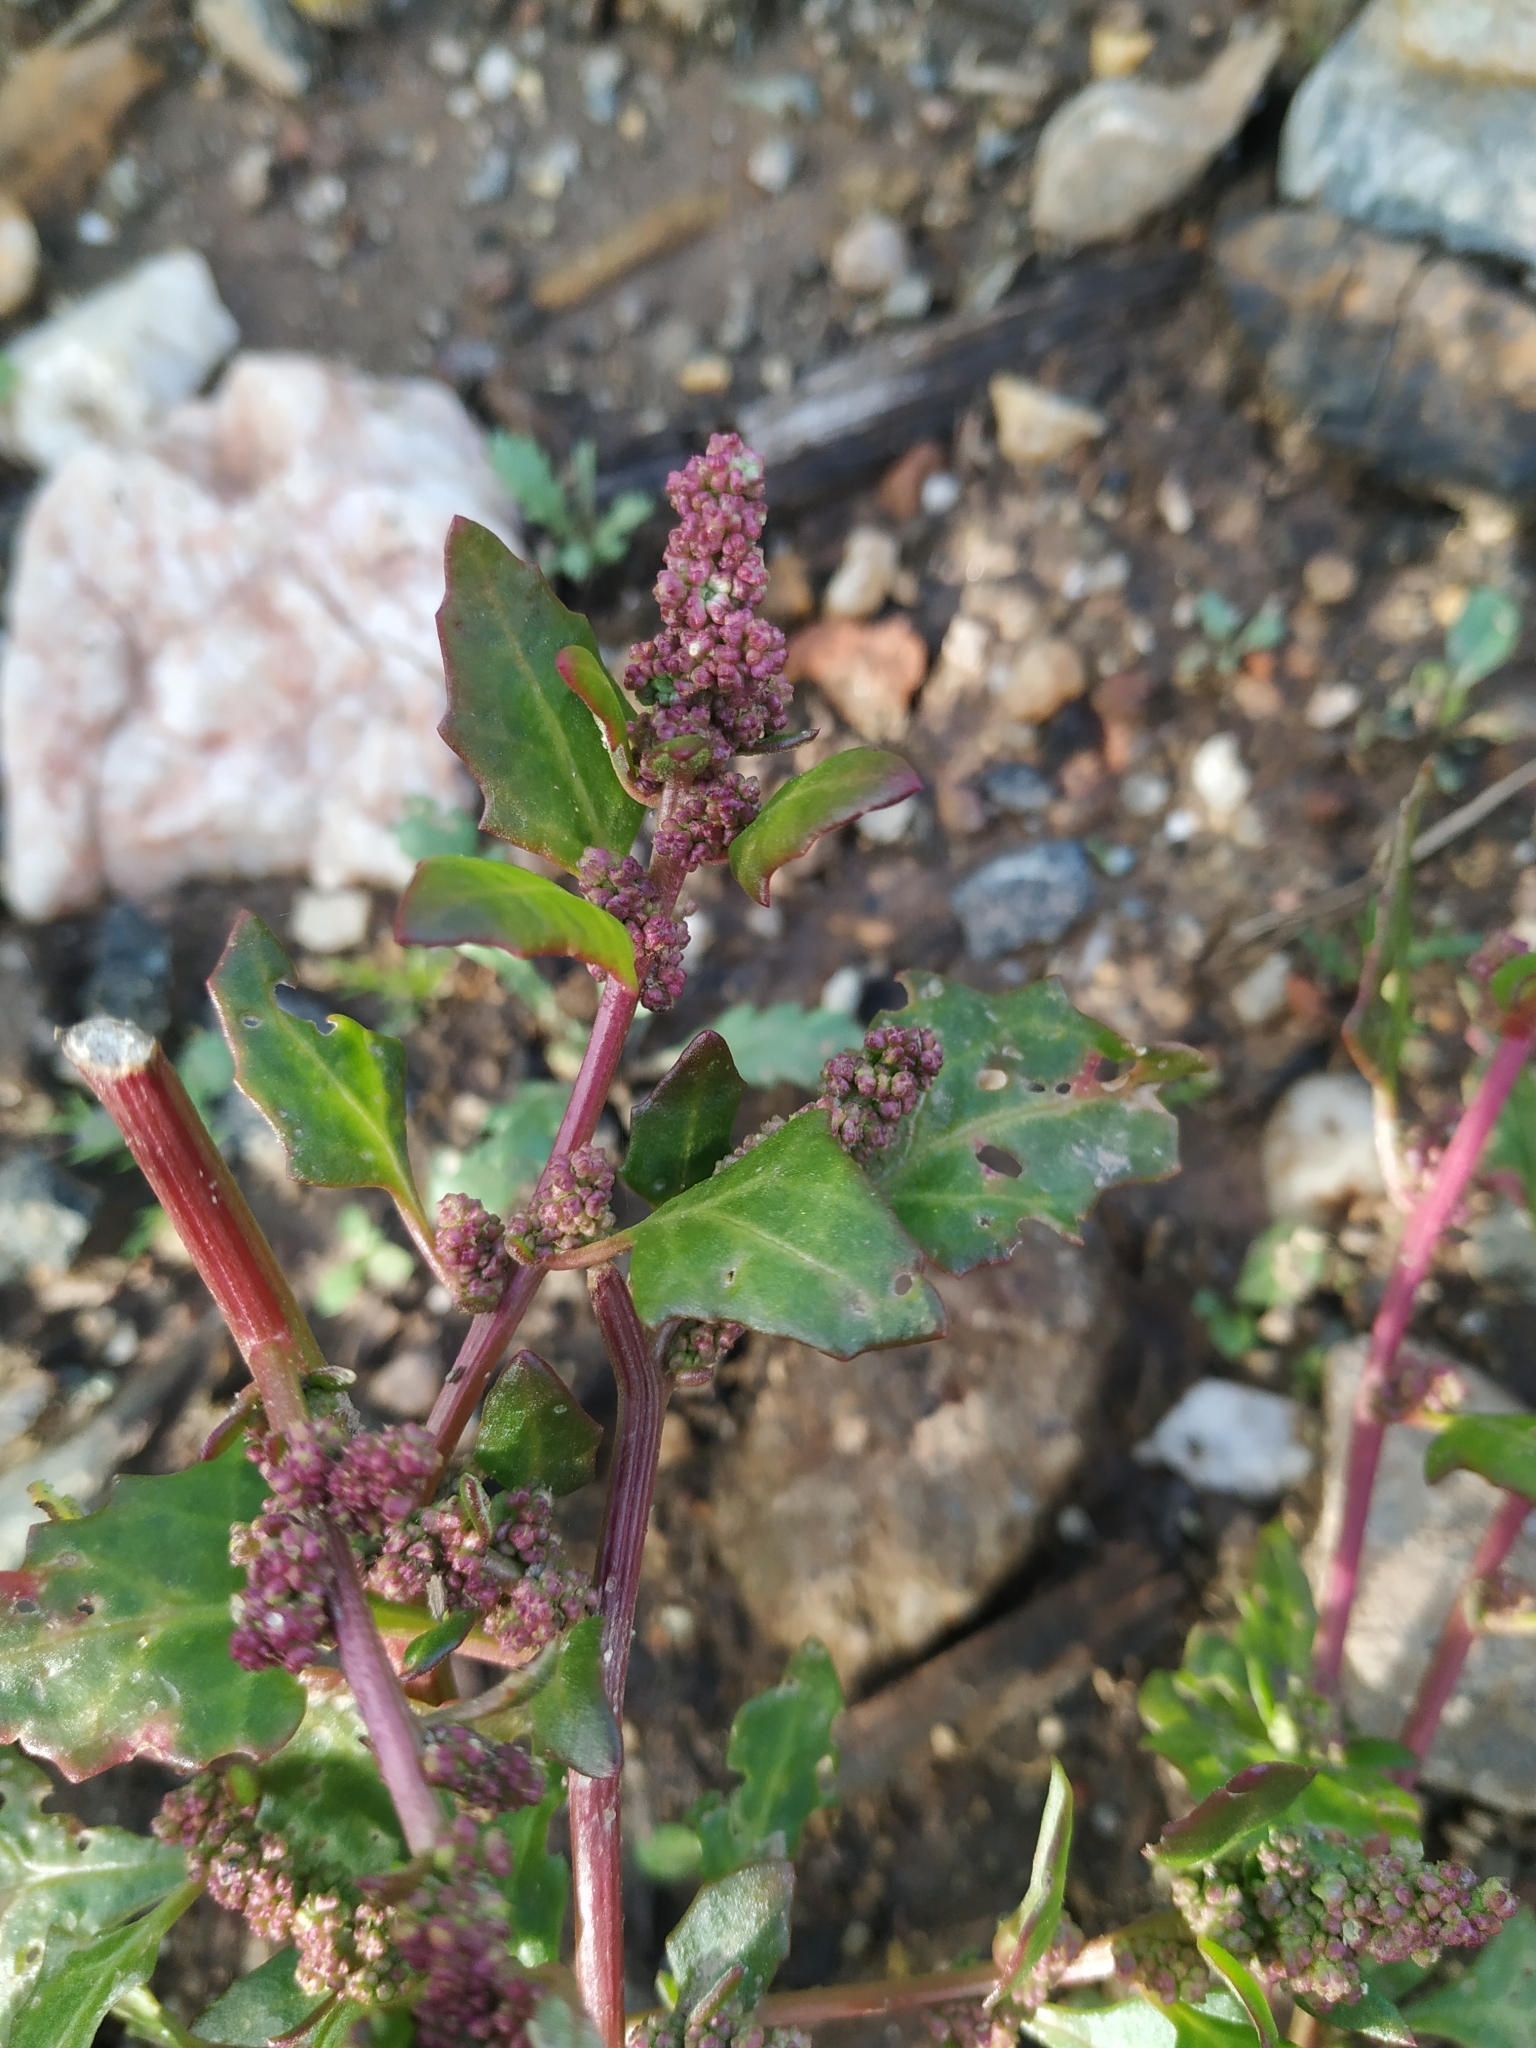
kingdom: Plantae
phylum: Tracheophyta
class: Magnoliopsida
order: Caryophyllales
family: Amaranthaceae
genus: Oxybasis
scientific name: Oxybasis rubra
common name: Red goosefoot
